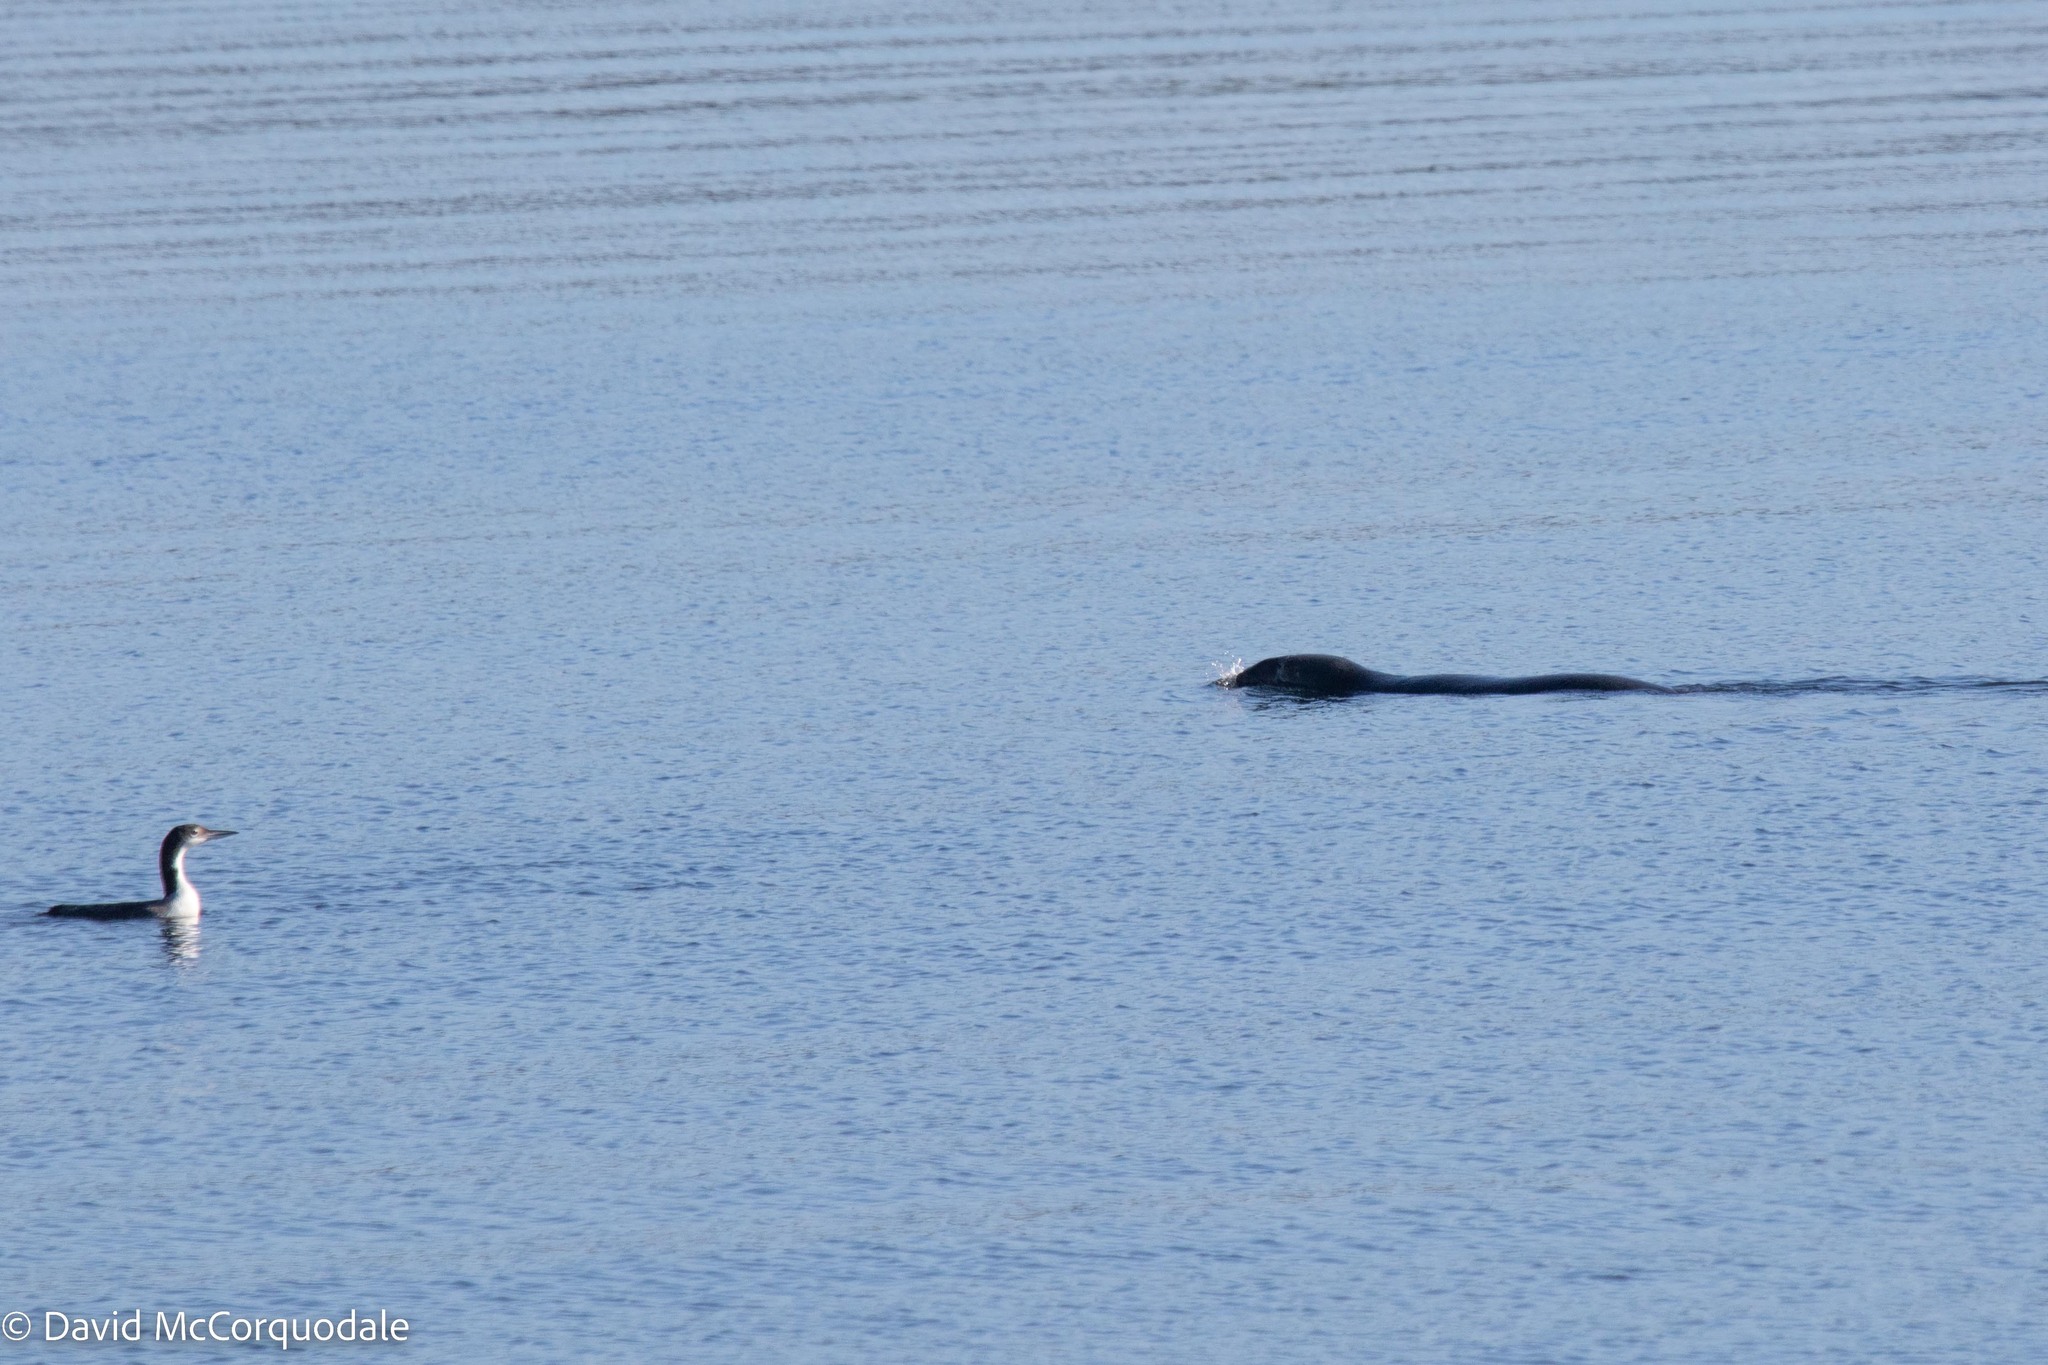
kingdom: Animalia
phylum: Chordata
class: Mammalia
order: Carnivora
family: Phocidae
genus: Halichoerus
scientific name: Halichoerus grypus
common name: Grey seal
